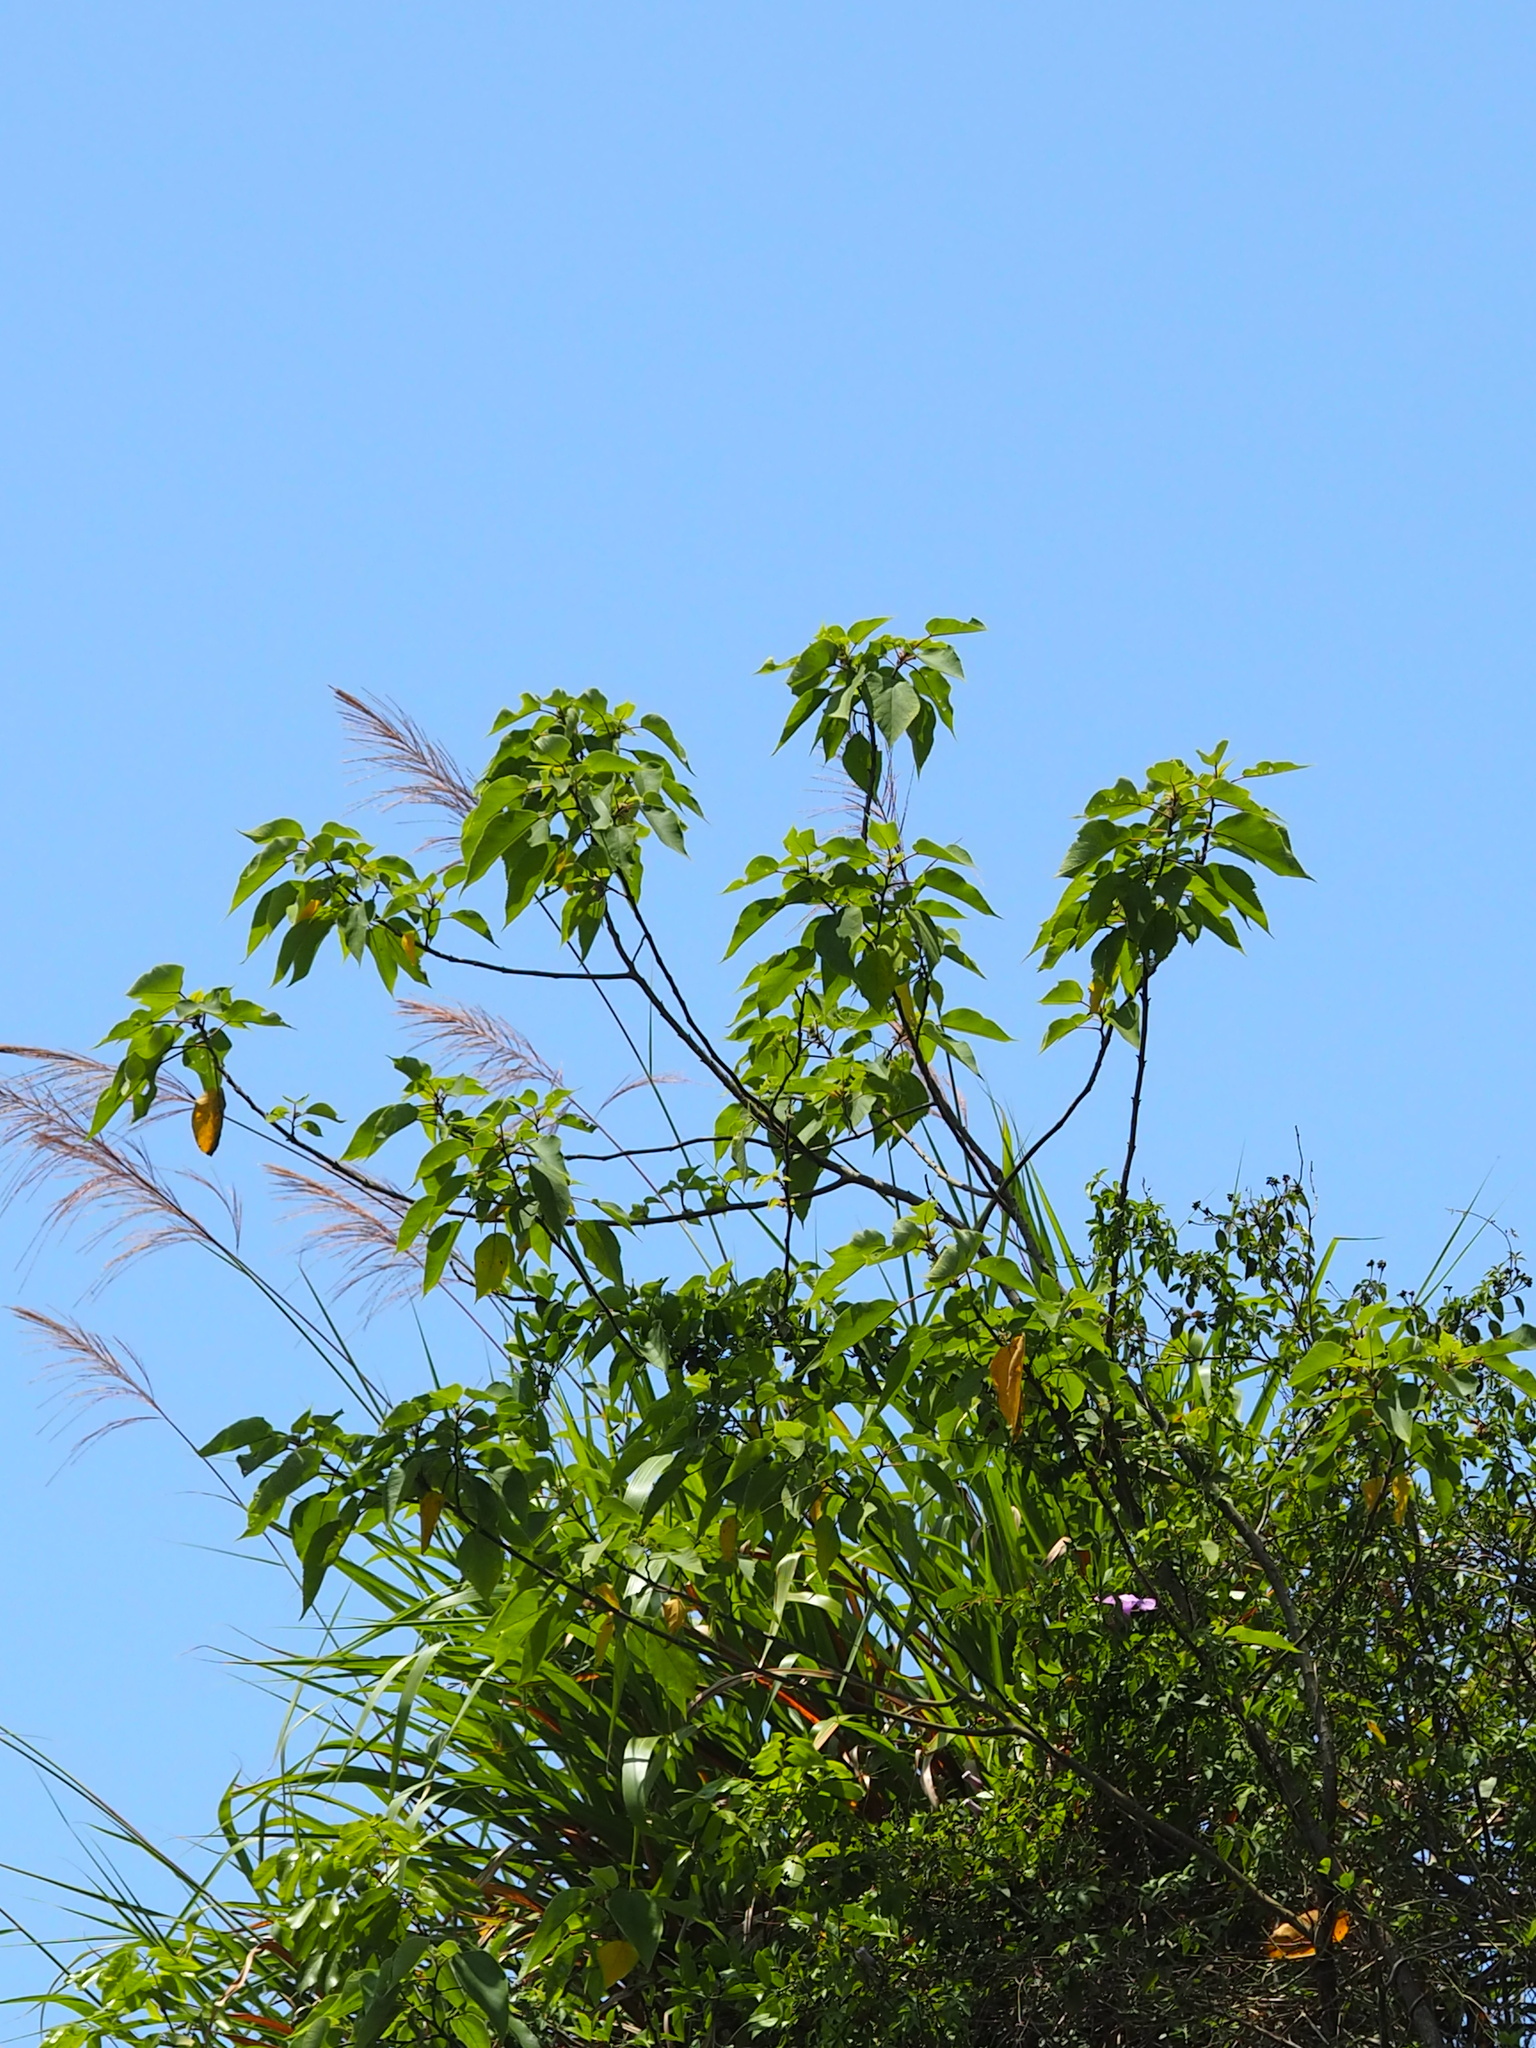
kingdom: Plantae
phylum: Tracheophyta
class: Magnoliopsida
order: Rosales
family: Moraceae
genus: Broussonetia
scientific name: Broussonetia papyrifera
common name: Paper mulberry
